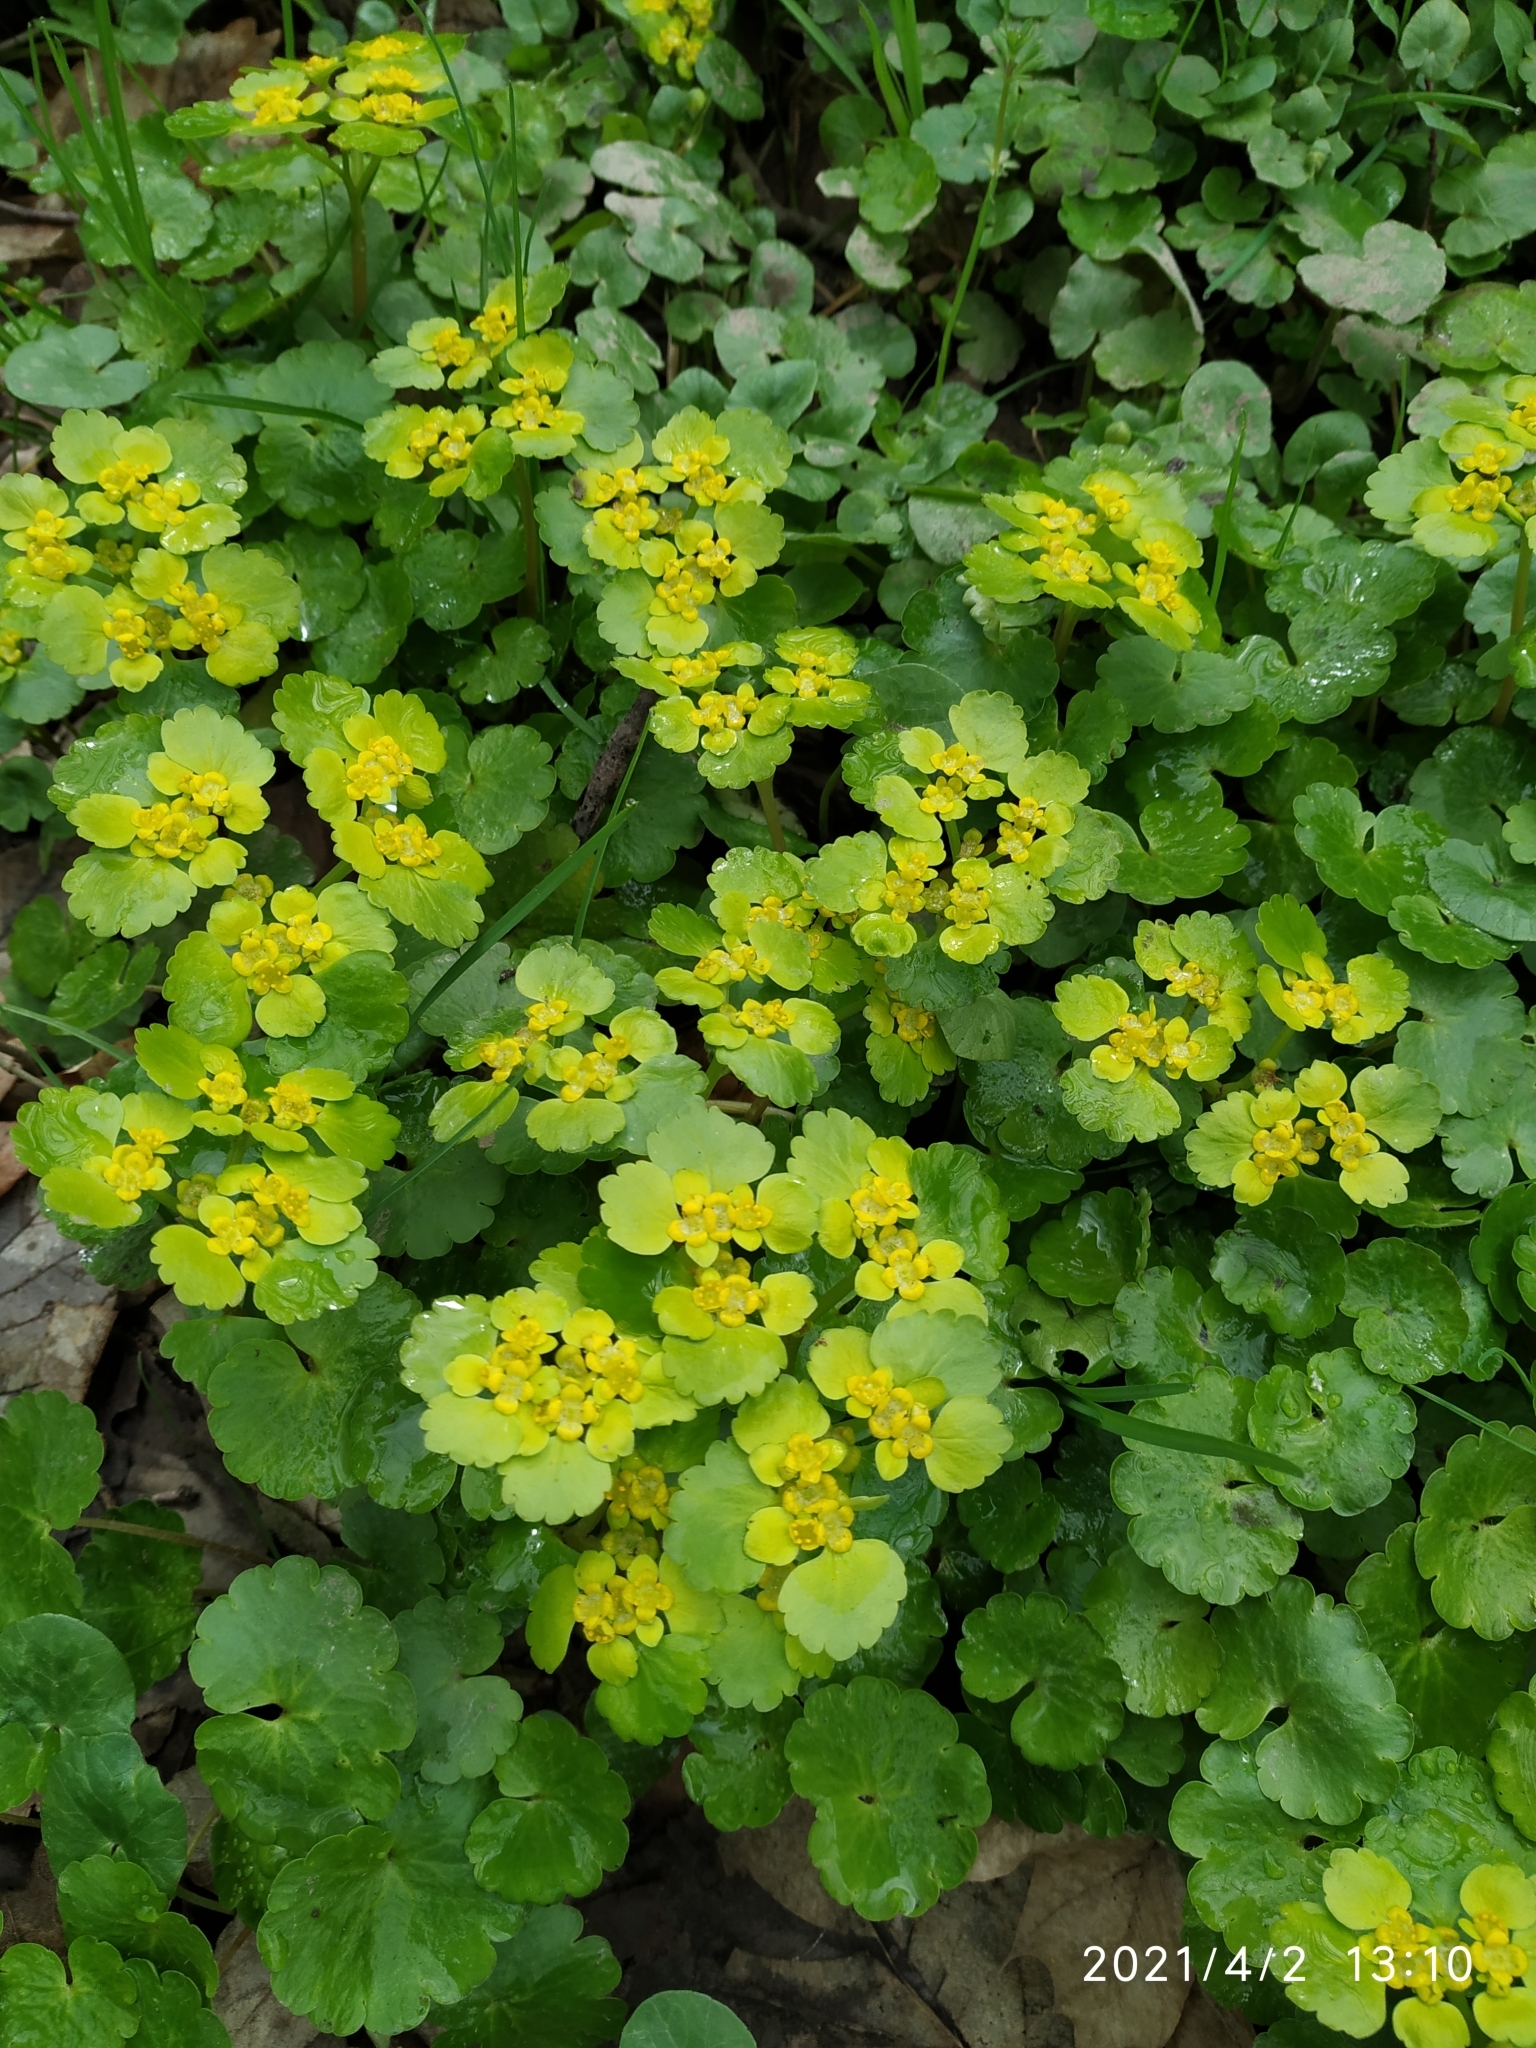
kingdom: Plantae
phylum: Tracheophyta
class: Magnoliopsida
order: Saxifragales
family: Saxifragaceae
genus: Chrysosplenium
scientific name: Chrysosplenium alternifolium
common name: Alternate-leaved golden-saxifrage
